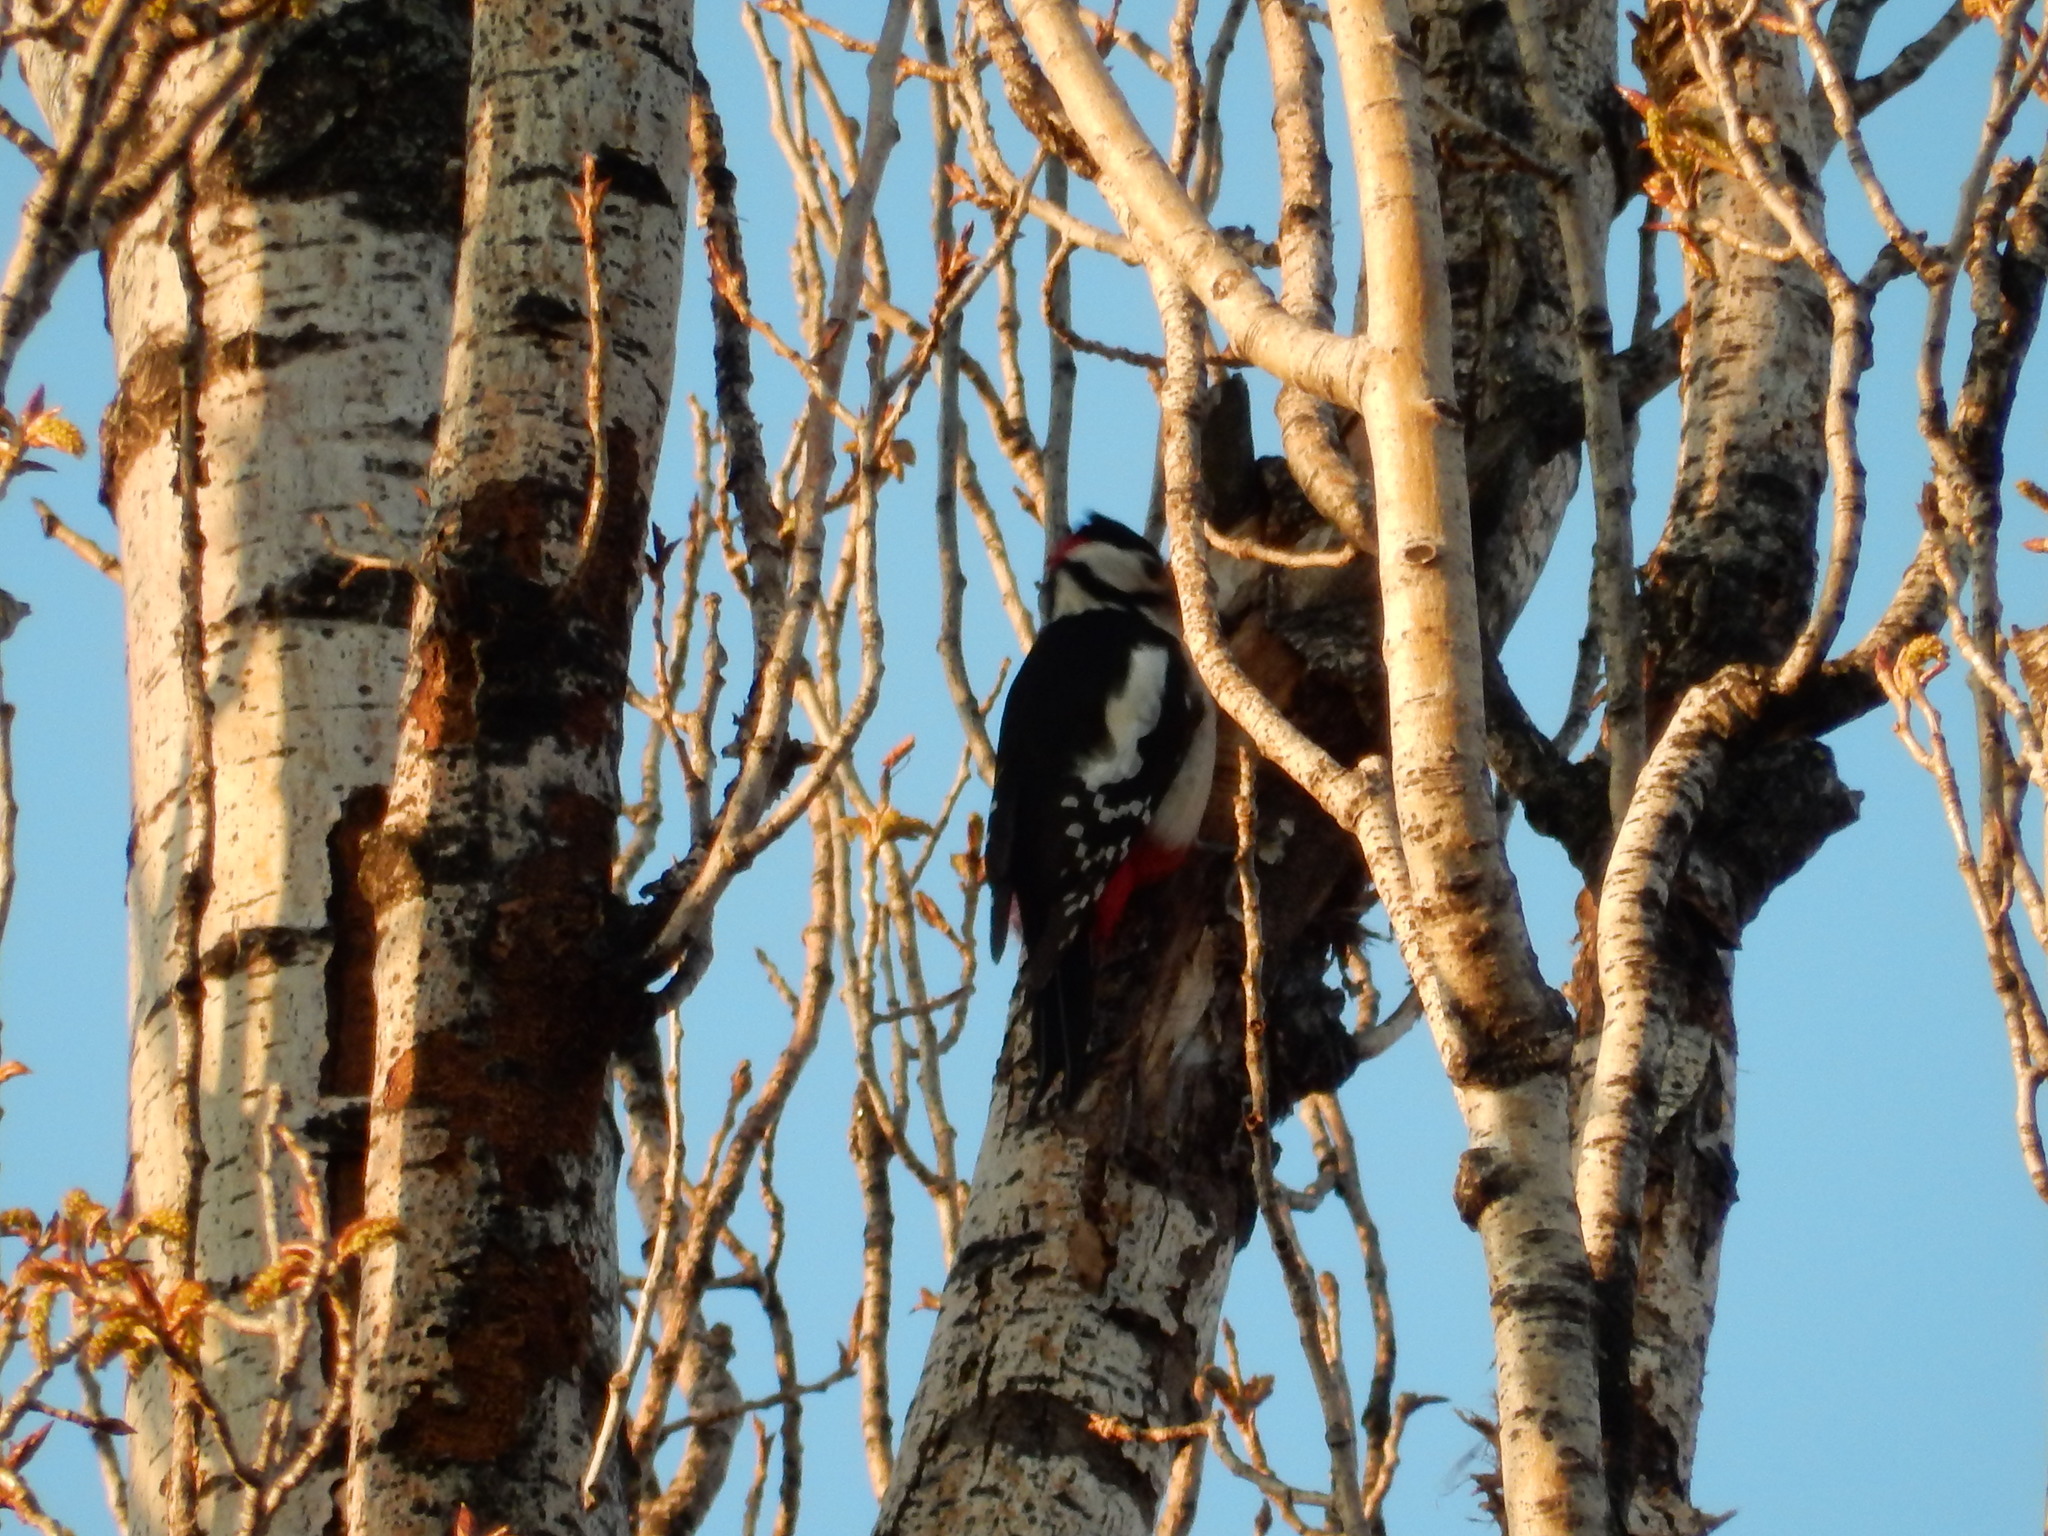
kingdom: Animalia
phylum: Chordata
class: Aves
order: Piciformes
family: Picidae
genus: Dendrocopos
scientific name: Dendrocopos major
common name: Great spotted woodpecker
